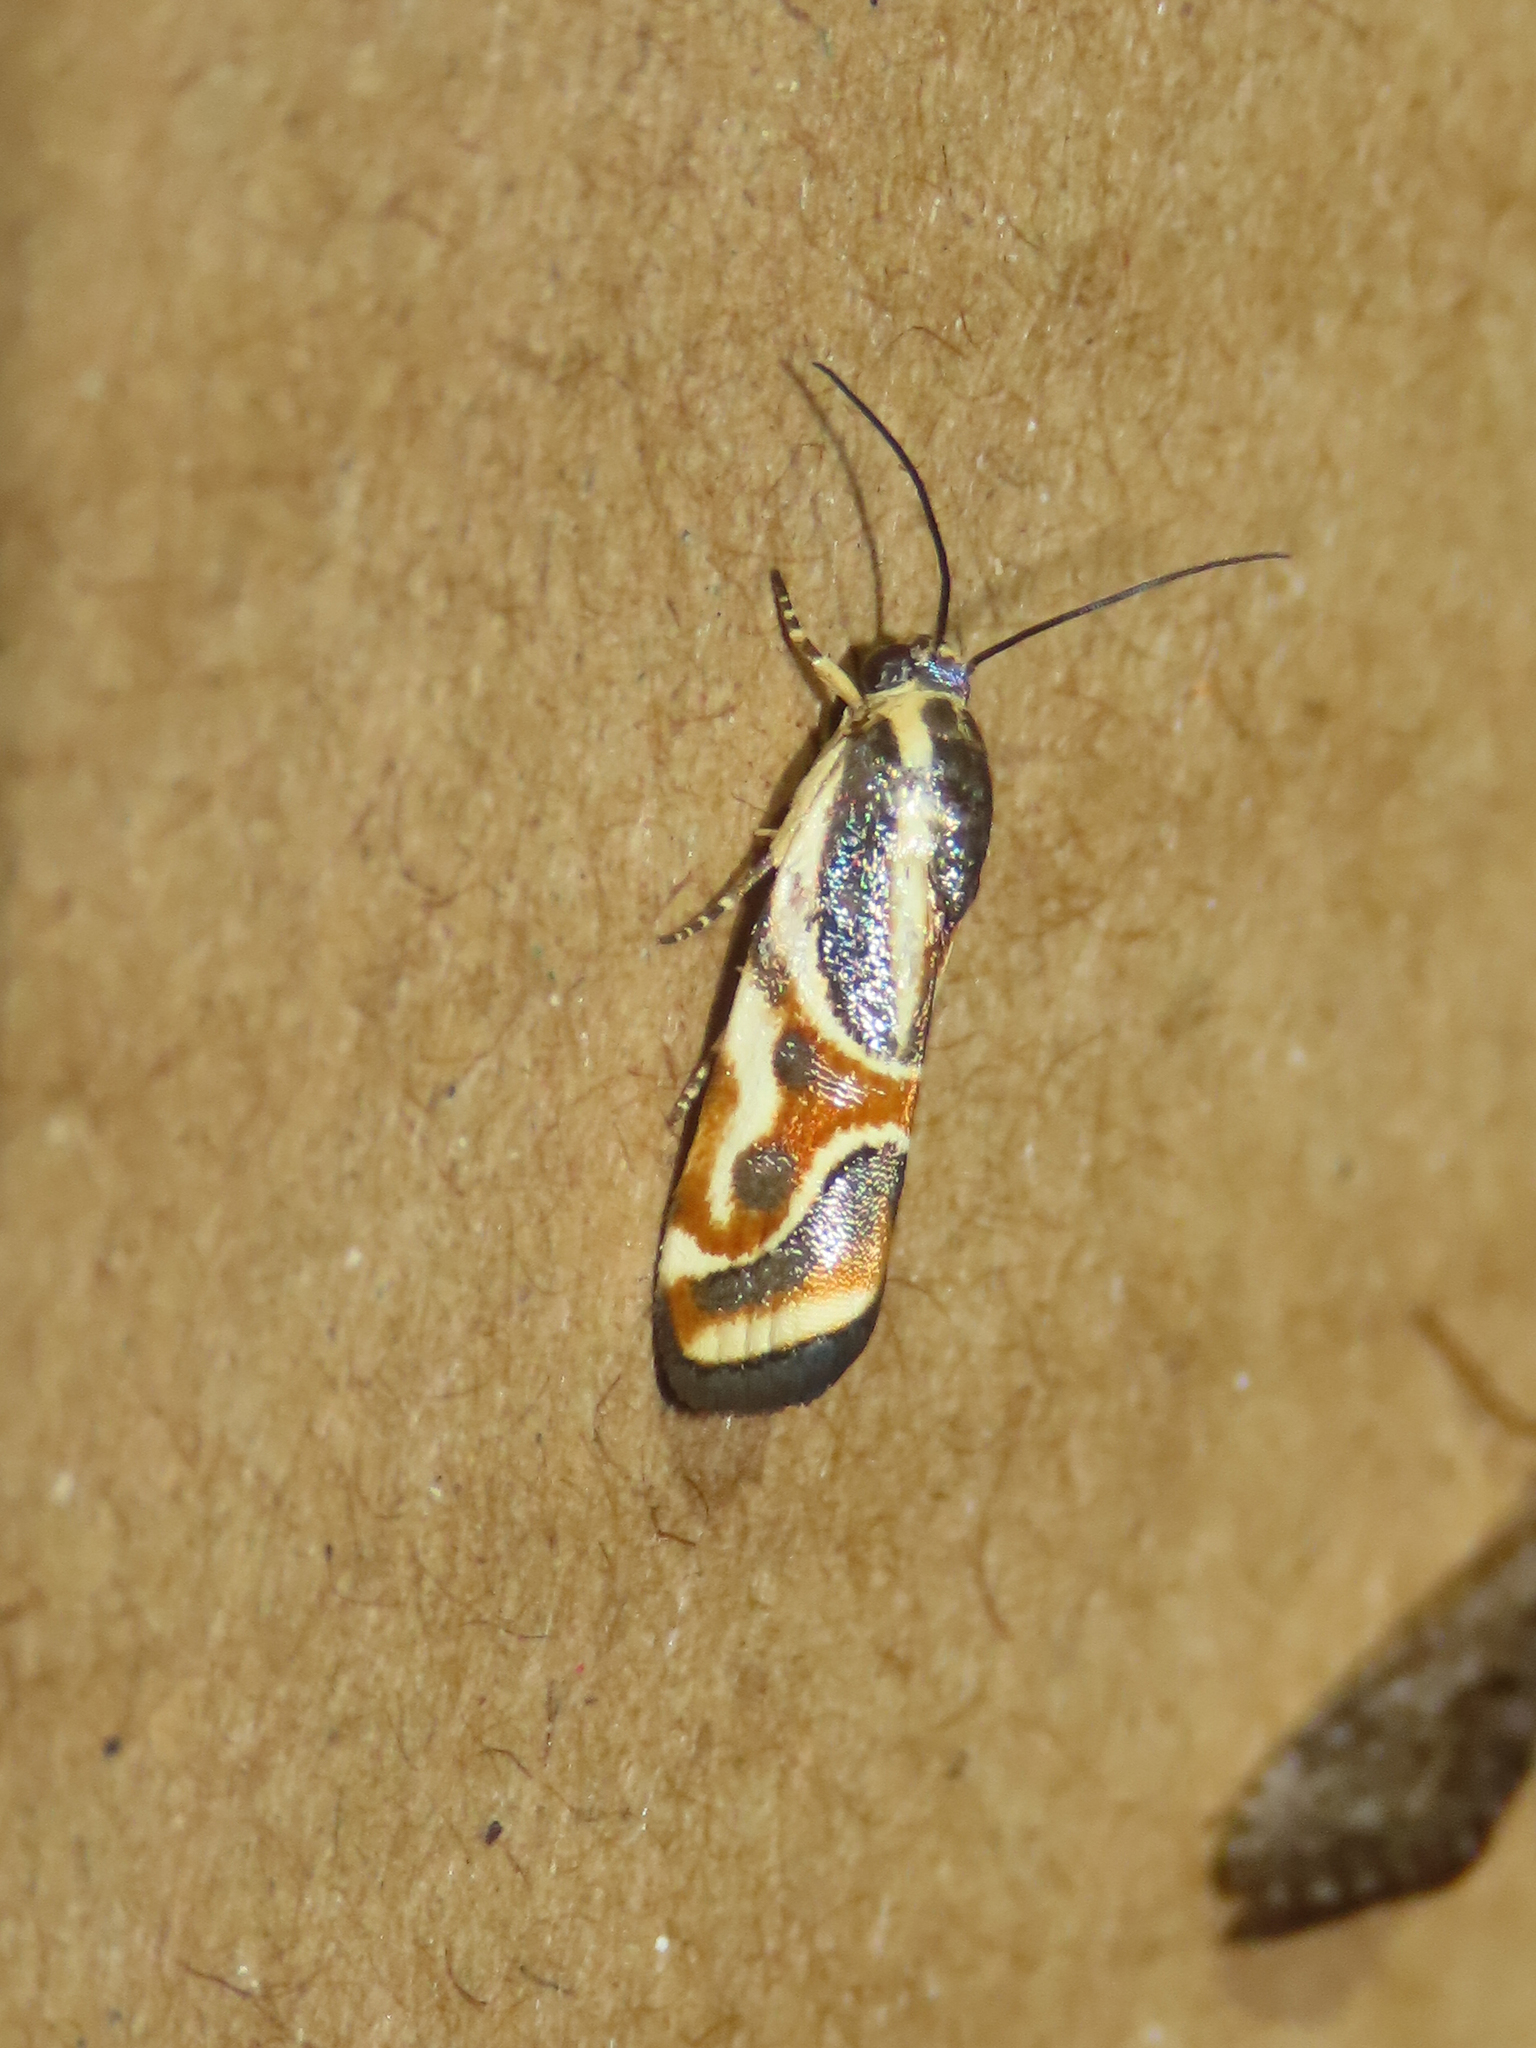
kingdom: Animalia
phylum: Arthropoda
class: Insecta
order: Lepidoptera
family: Noctuidae
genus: Spragueia
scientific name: Spragueia magnifica
